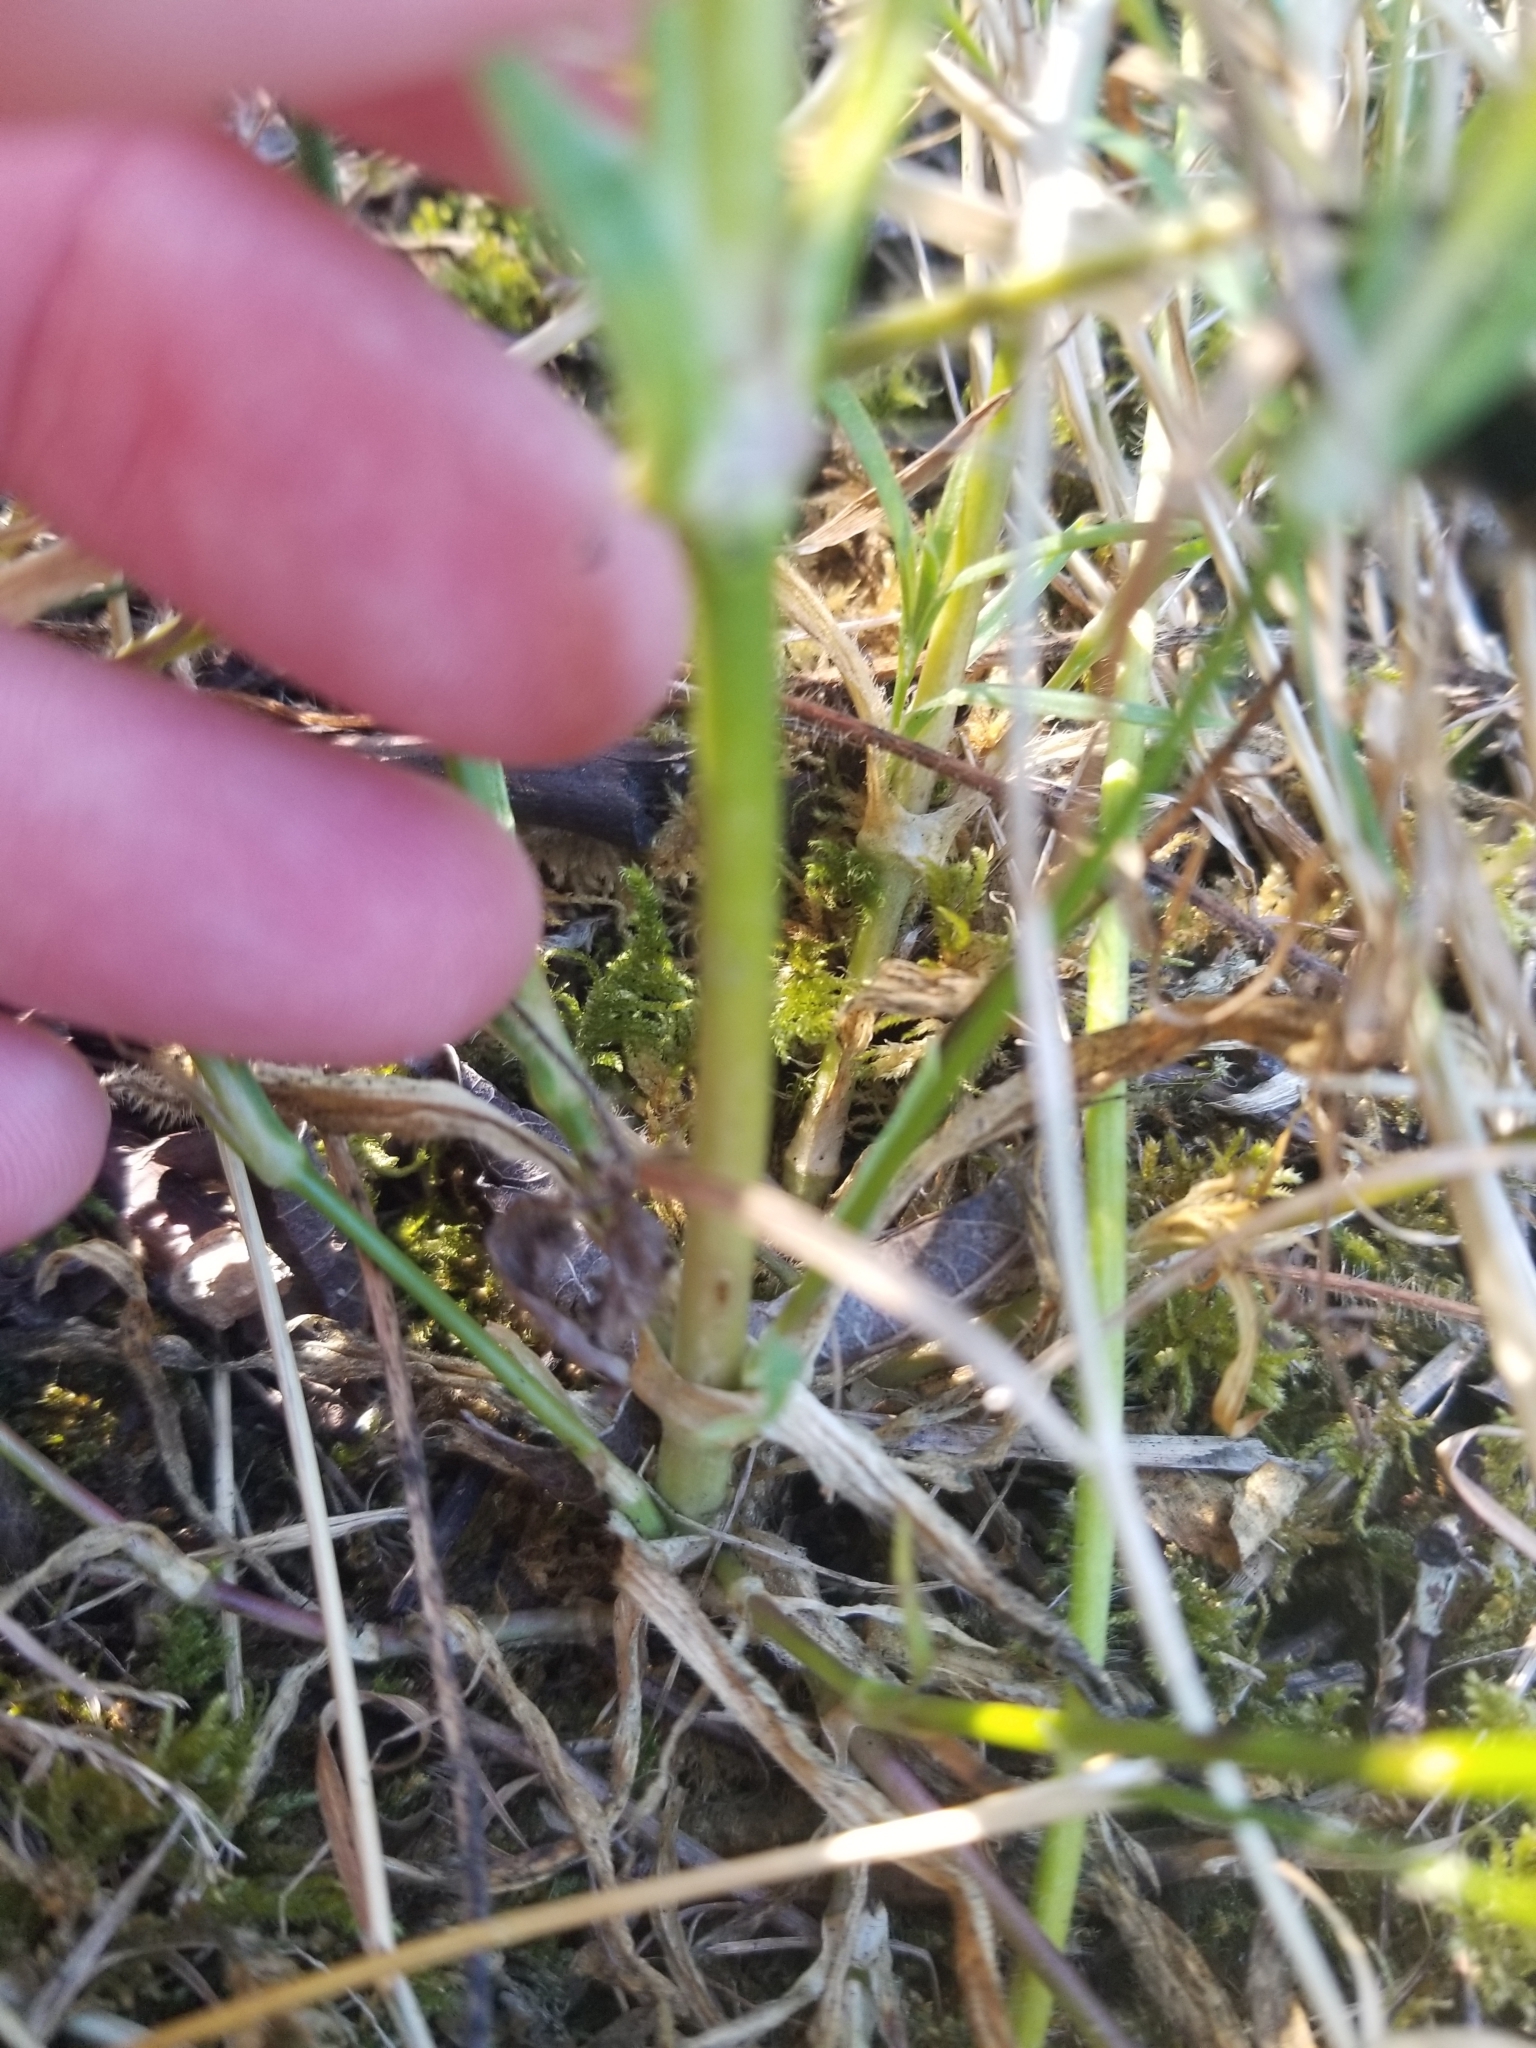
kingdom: Plantae
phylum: Tracheophyta
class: Magnoliopsida
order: Caryophyllales
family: Caryophyllaceae
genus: Dianthus
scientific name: Dianthus armeria
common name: Deptford pink
